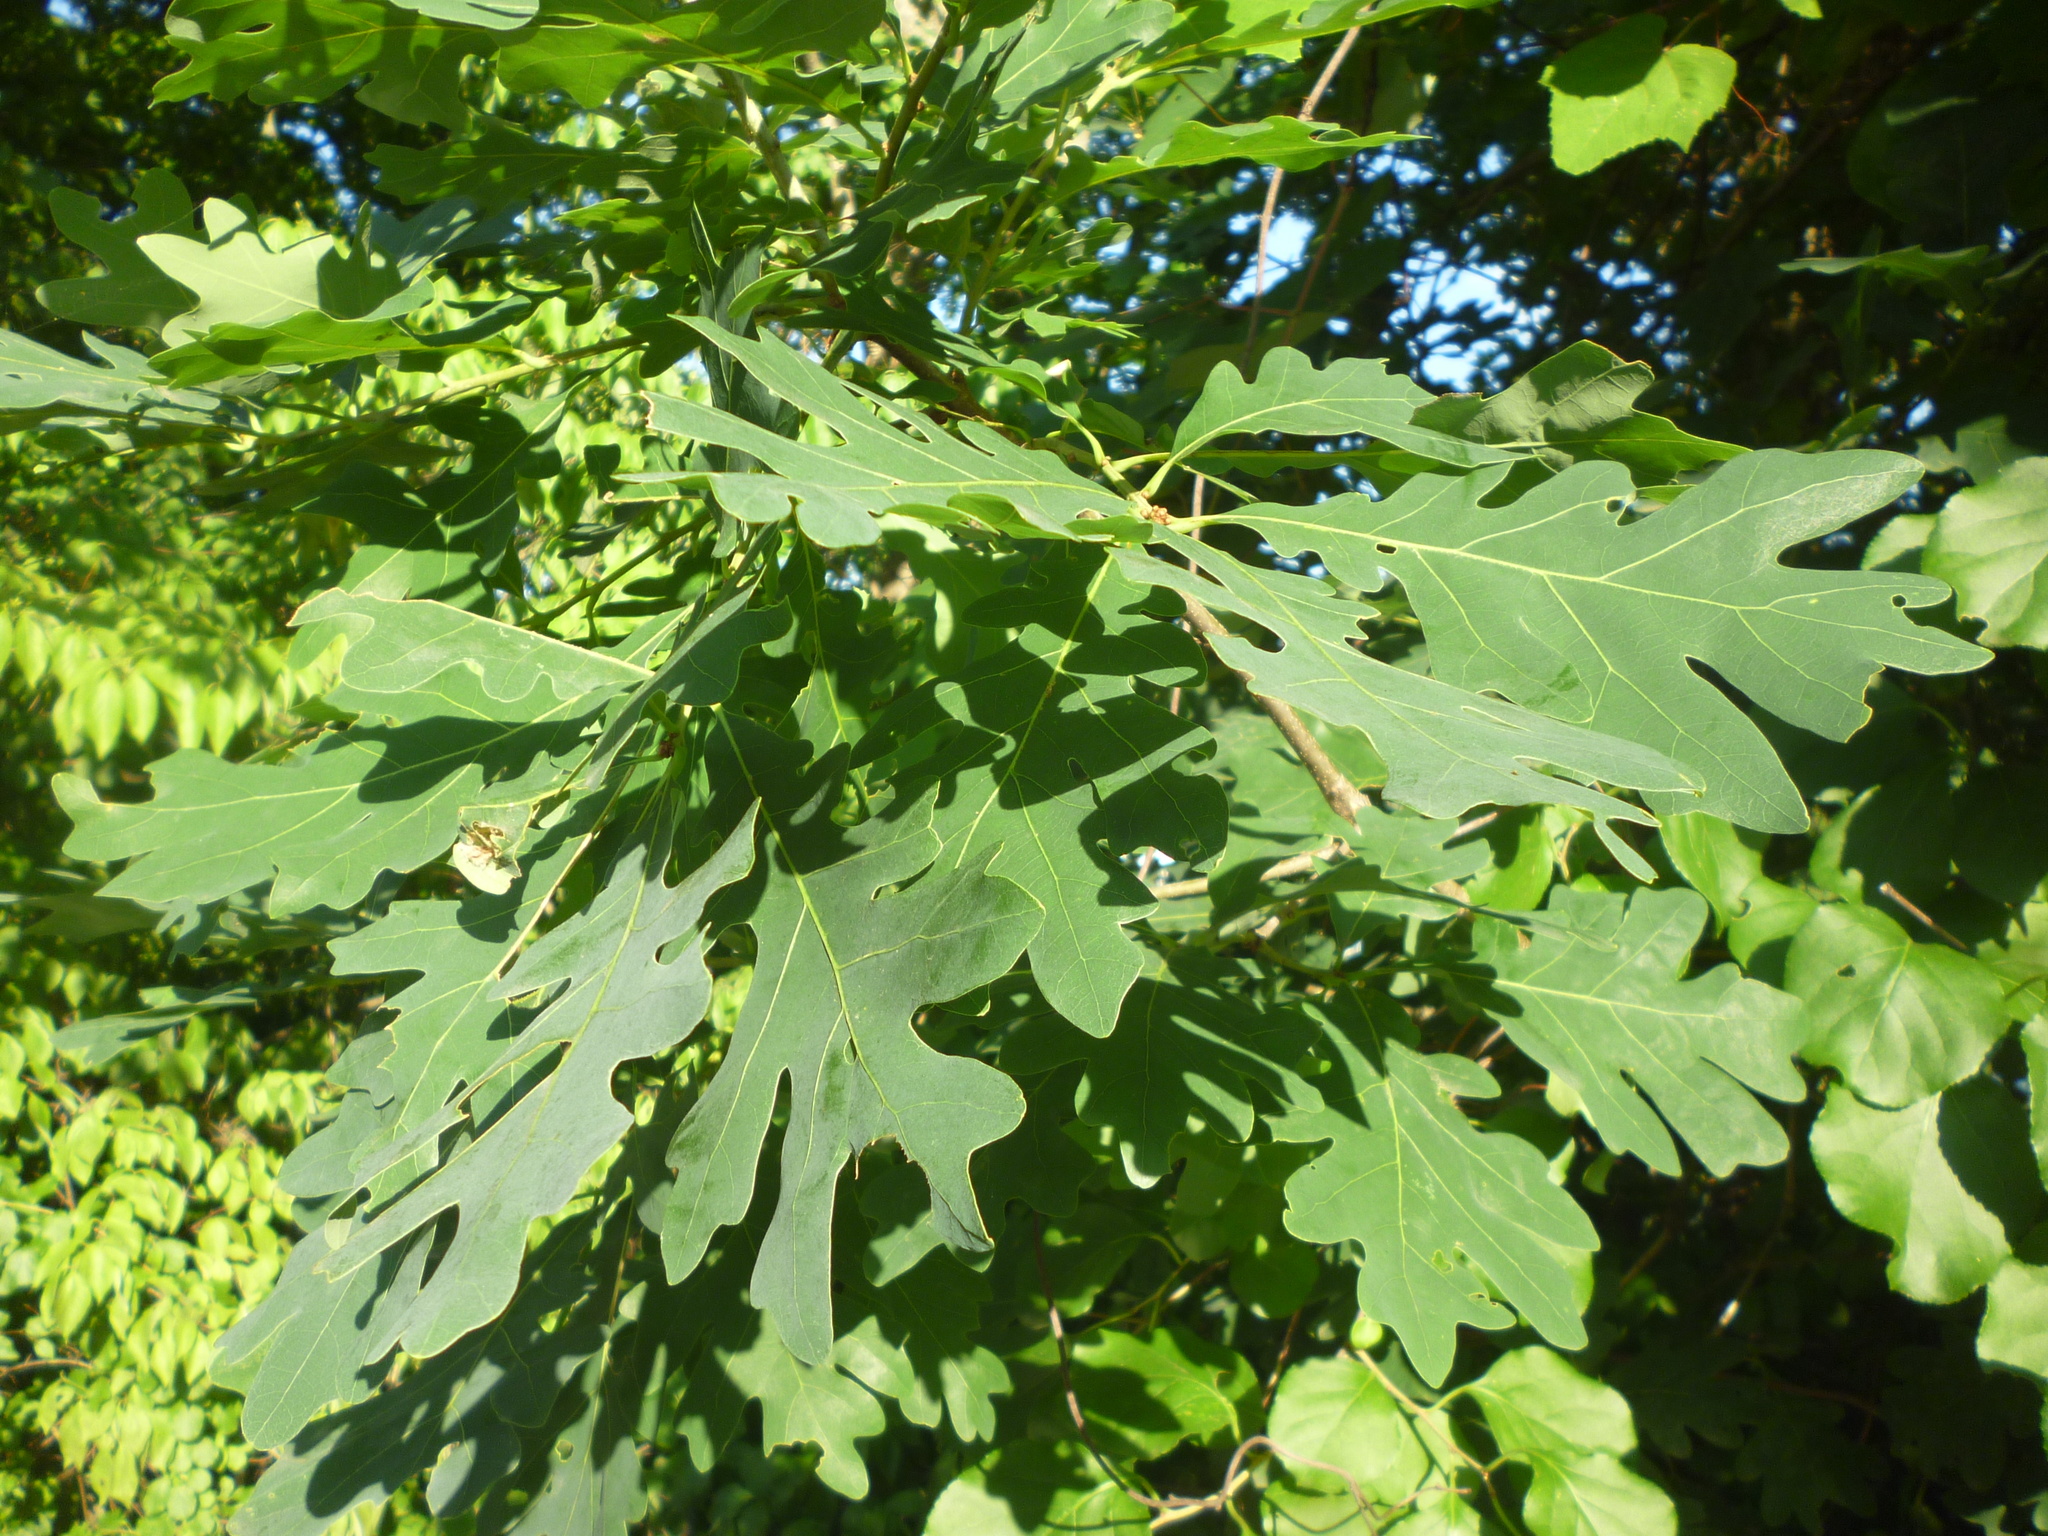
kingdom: Plantae
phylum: Tracheophyta
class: Magnoliopsida
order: Fagales
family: Fagaceae
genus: Quercus
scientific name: Quercus alba
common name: White oak
